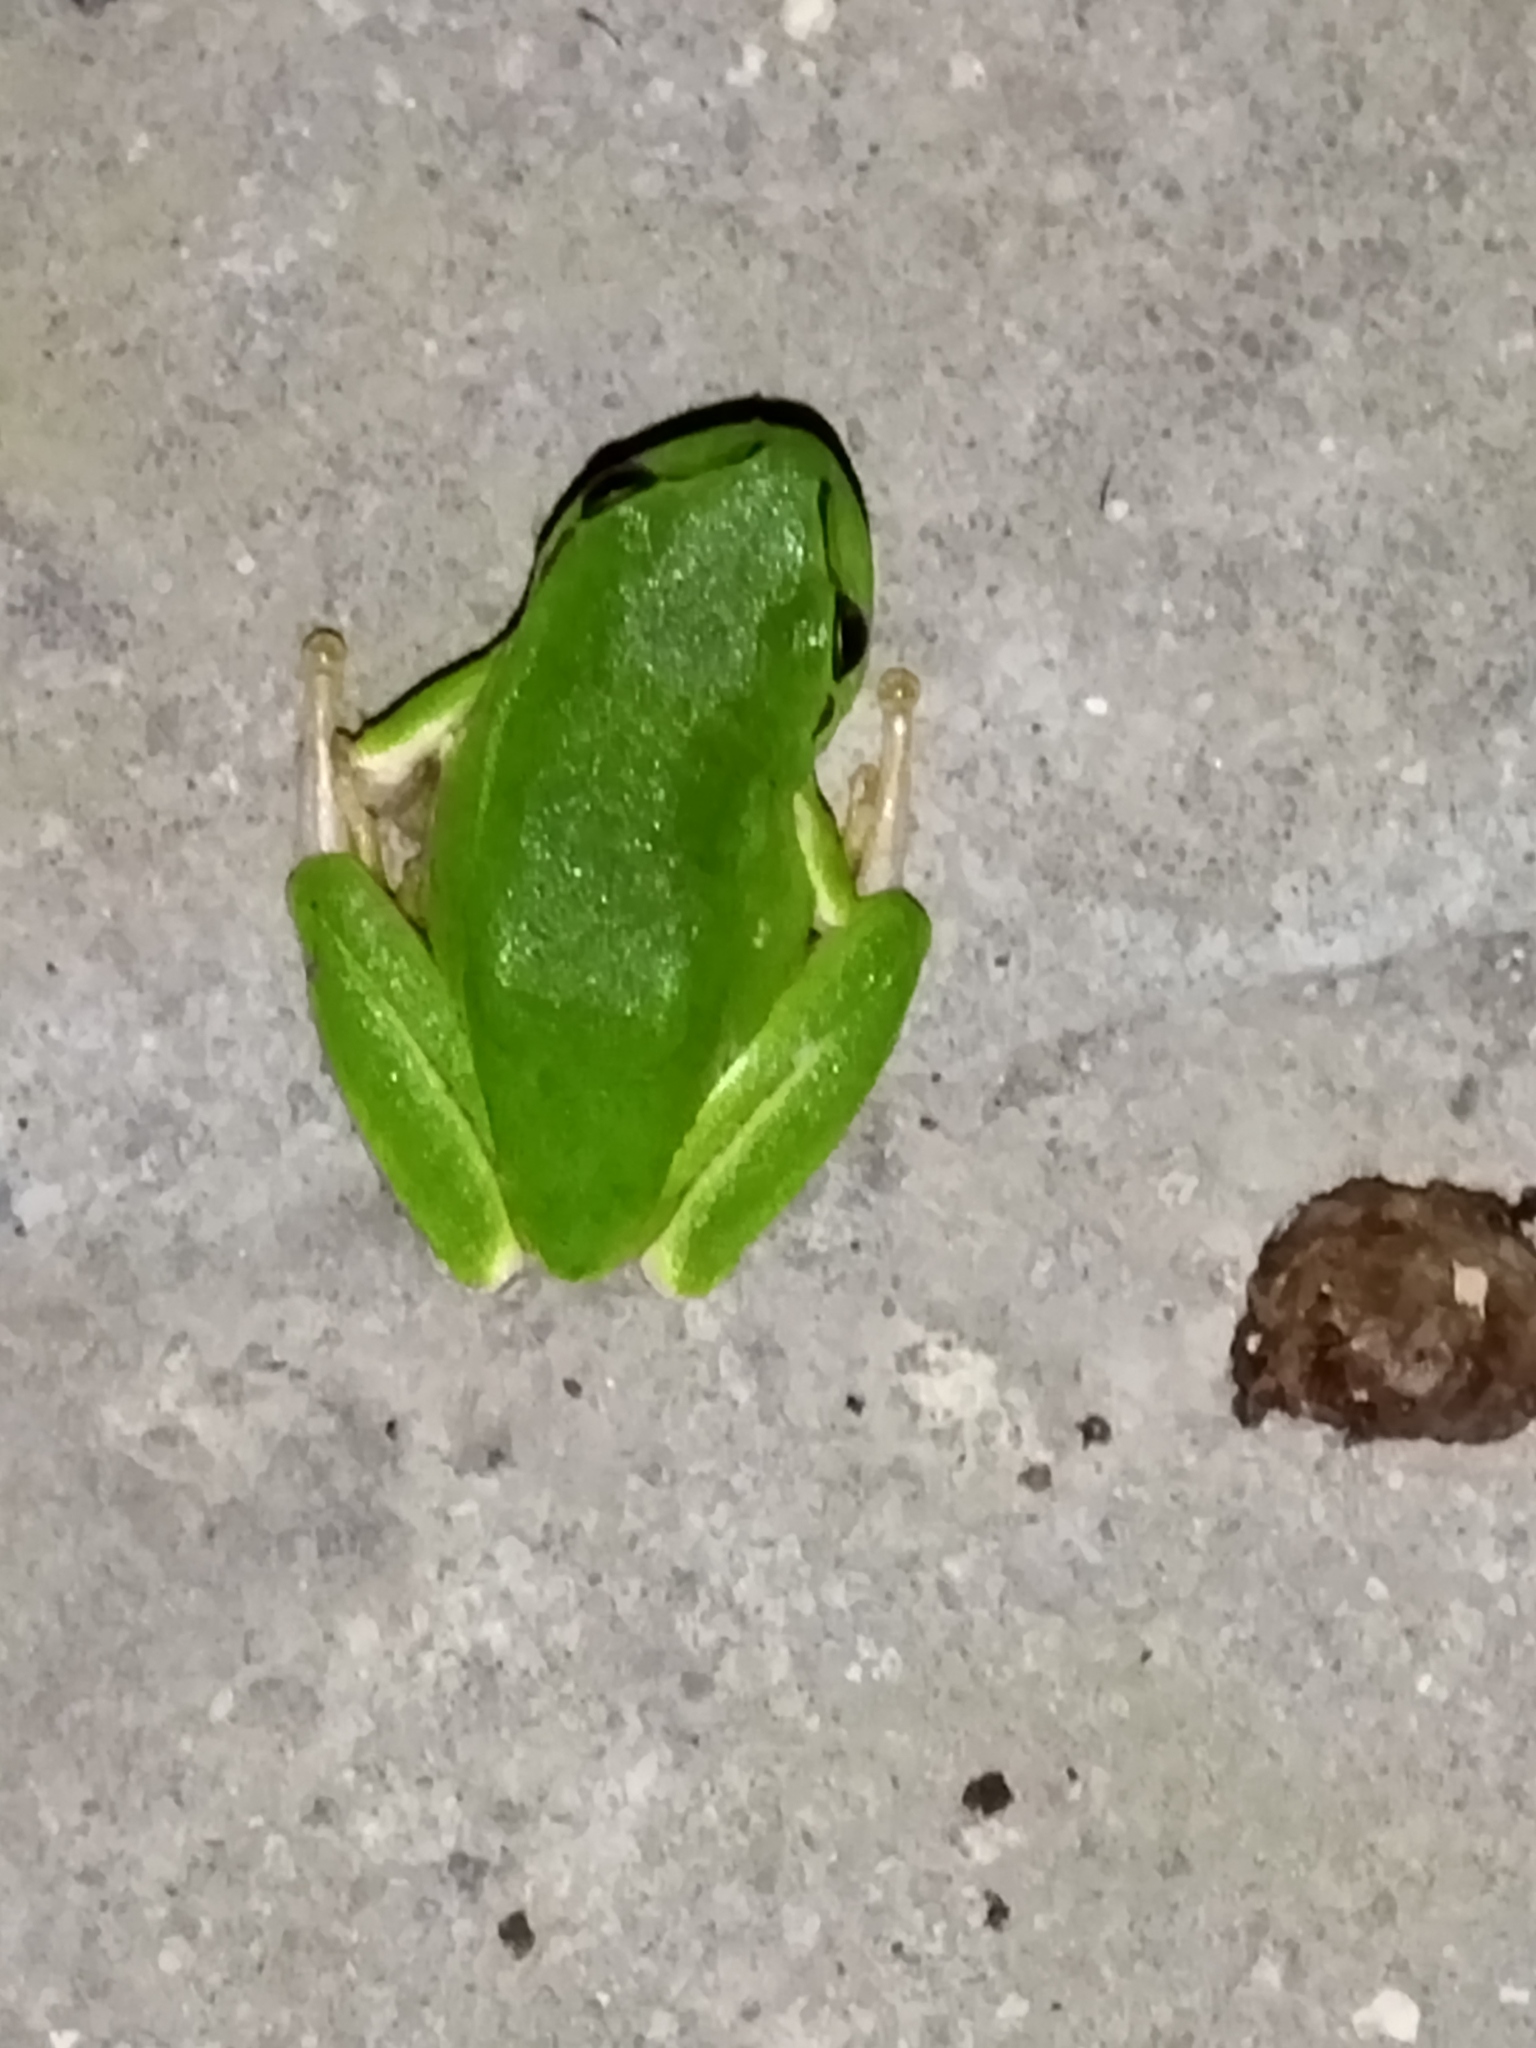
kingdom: Animalia
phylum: Chordata
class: Amphibia
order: Anura
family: Hylidae
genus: Hyla
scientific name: Hyla orientalis
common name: Caucasian treefrog
